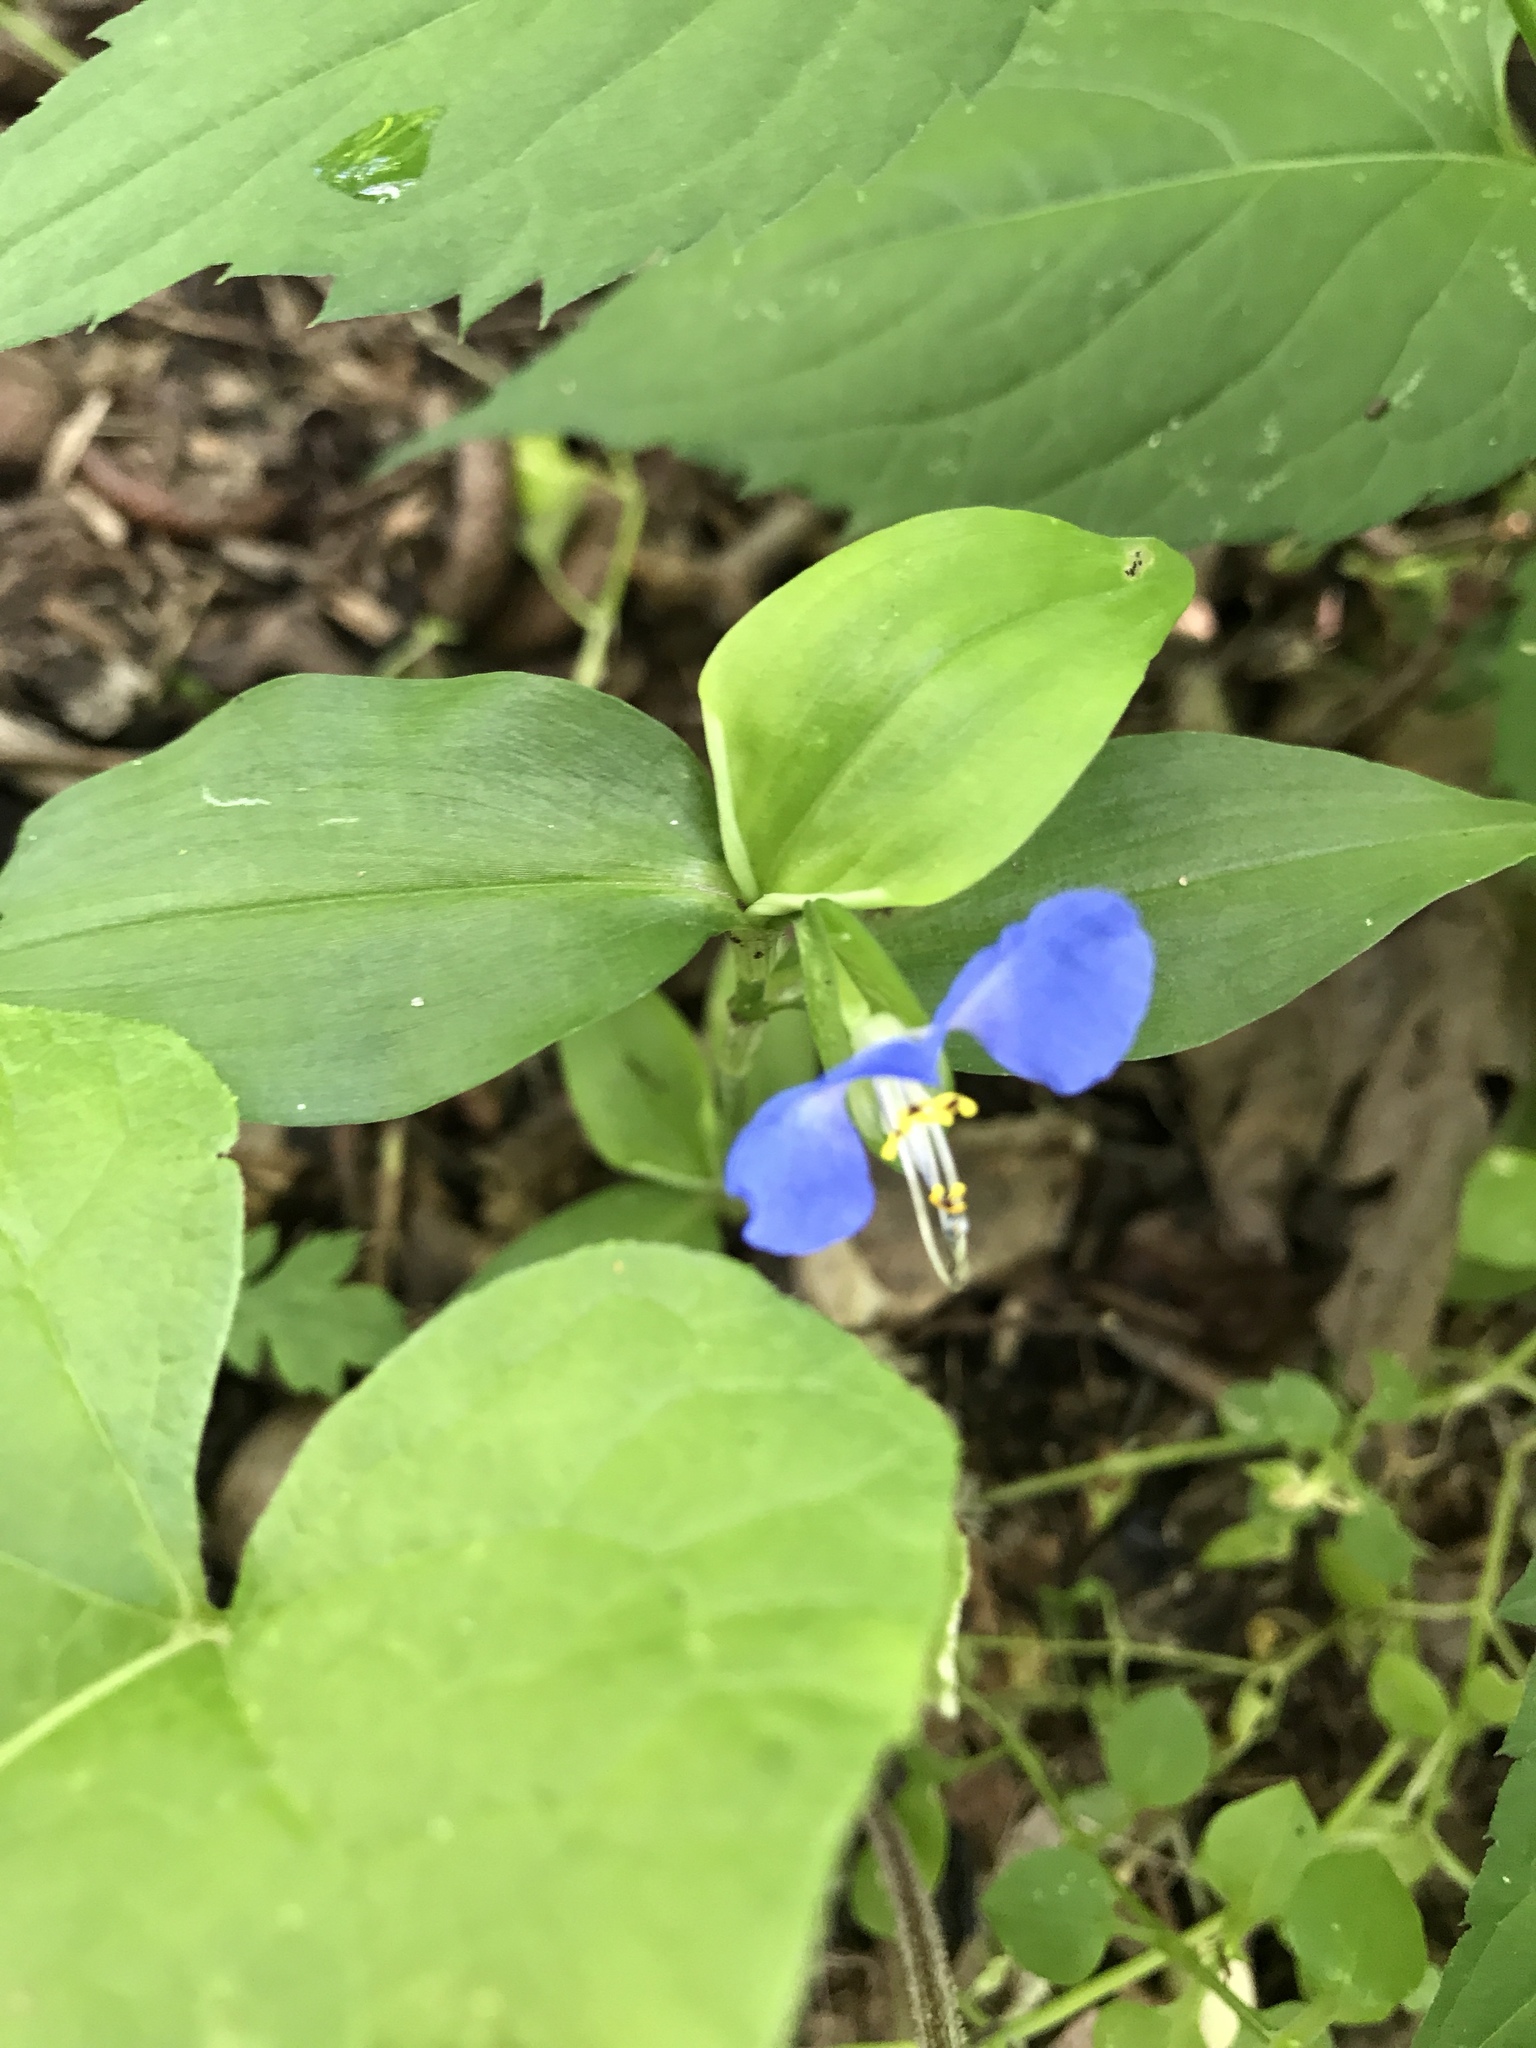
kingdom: Plantae
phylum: Tracheophyta
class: Liliopsida
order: Commelinales
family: Commelinaceae
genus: Commelina
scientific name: Commelina communis
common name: Asiatic dayflower
